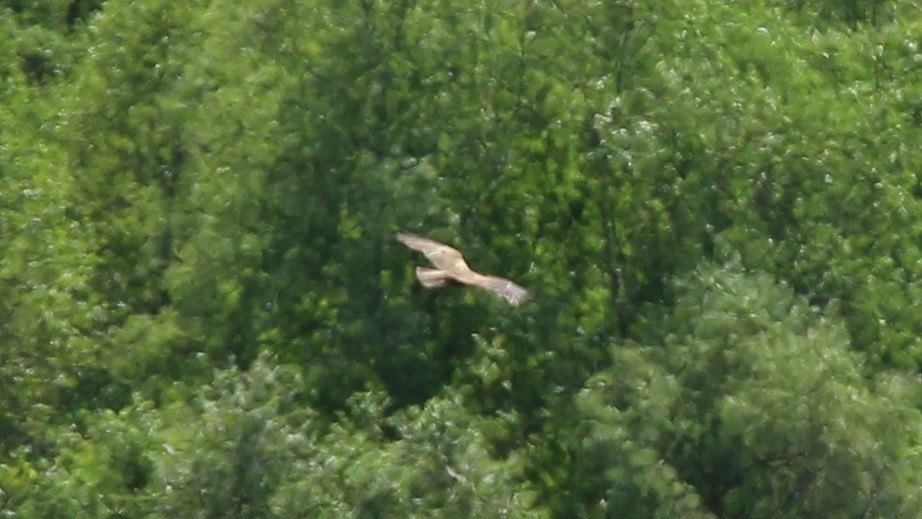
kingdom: Animalia
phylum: Chordata
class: Aves
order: Accipitriformes
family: Accipitridae
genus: Circus
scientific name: Circus aeruginosus
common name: Western marsh harrier
